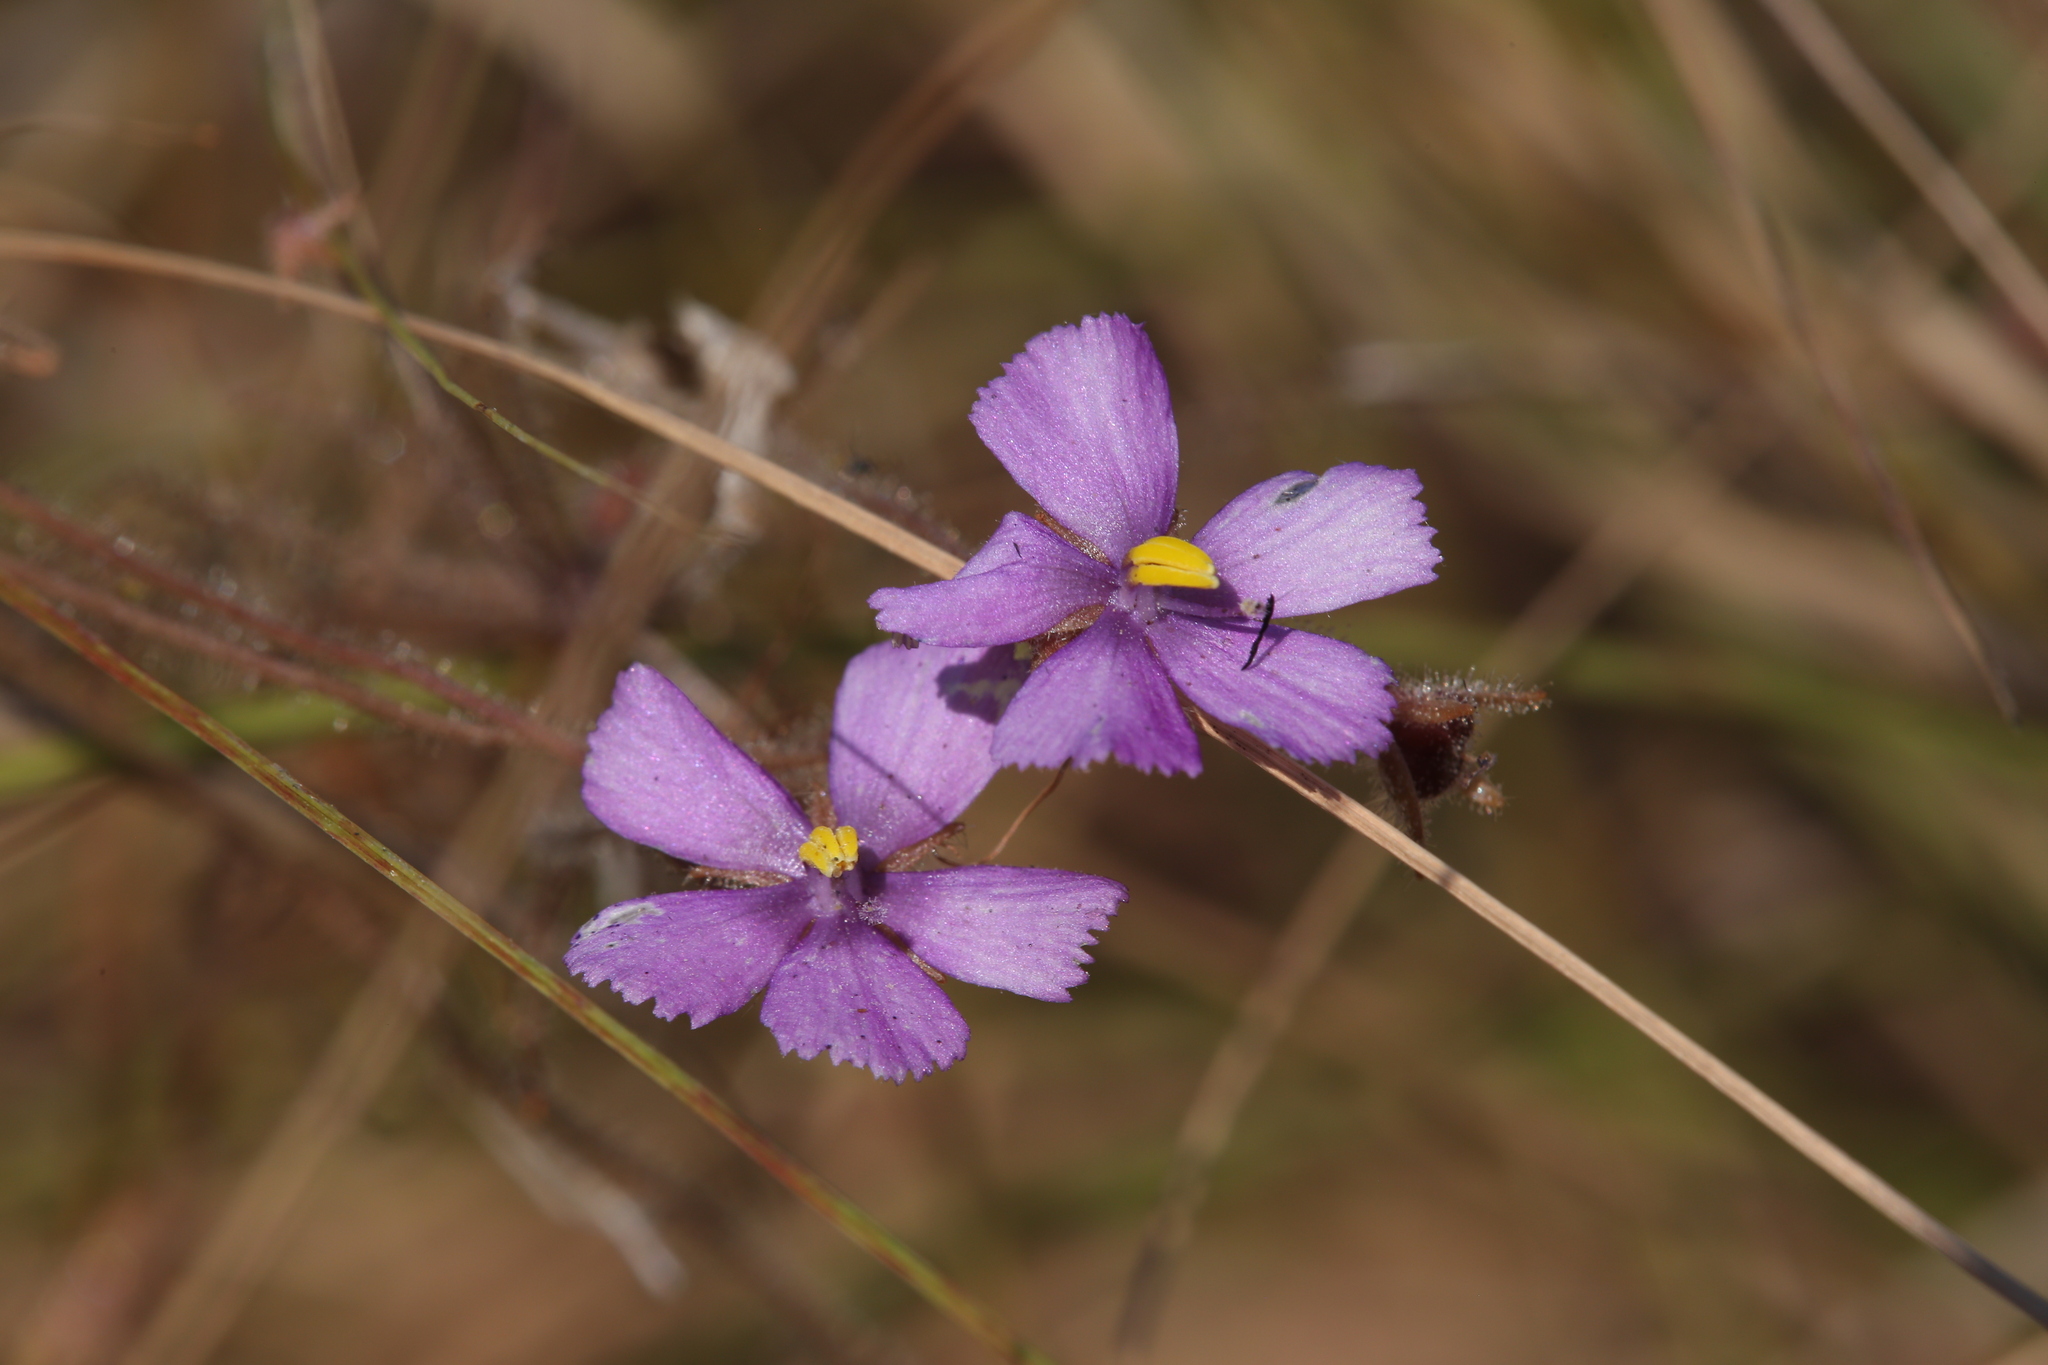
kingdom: Plantae
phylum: Tracheophyta
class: Magnoliopsida
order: Lamiales
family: Byblidaceae
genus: Byblis
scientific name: Byblis filifolia
